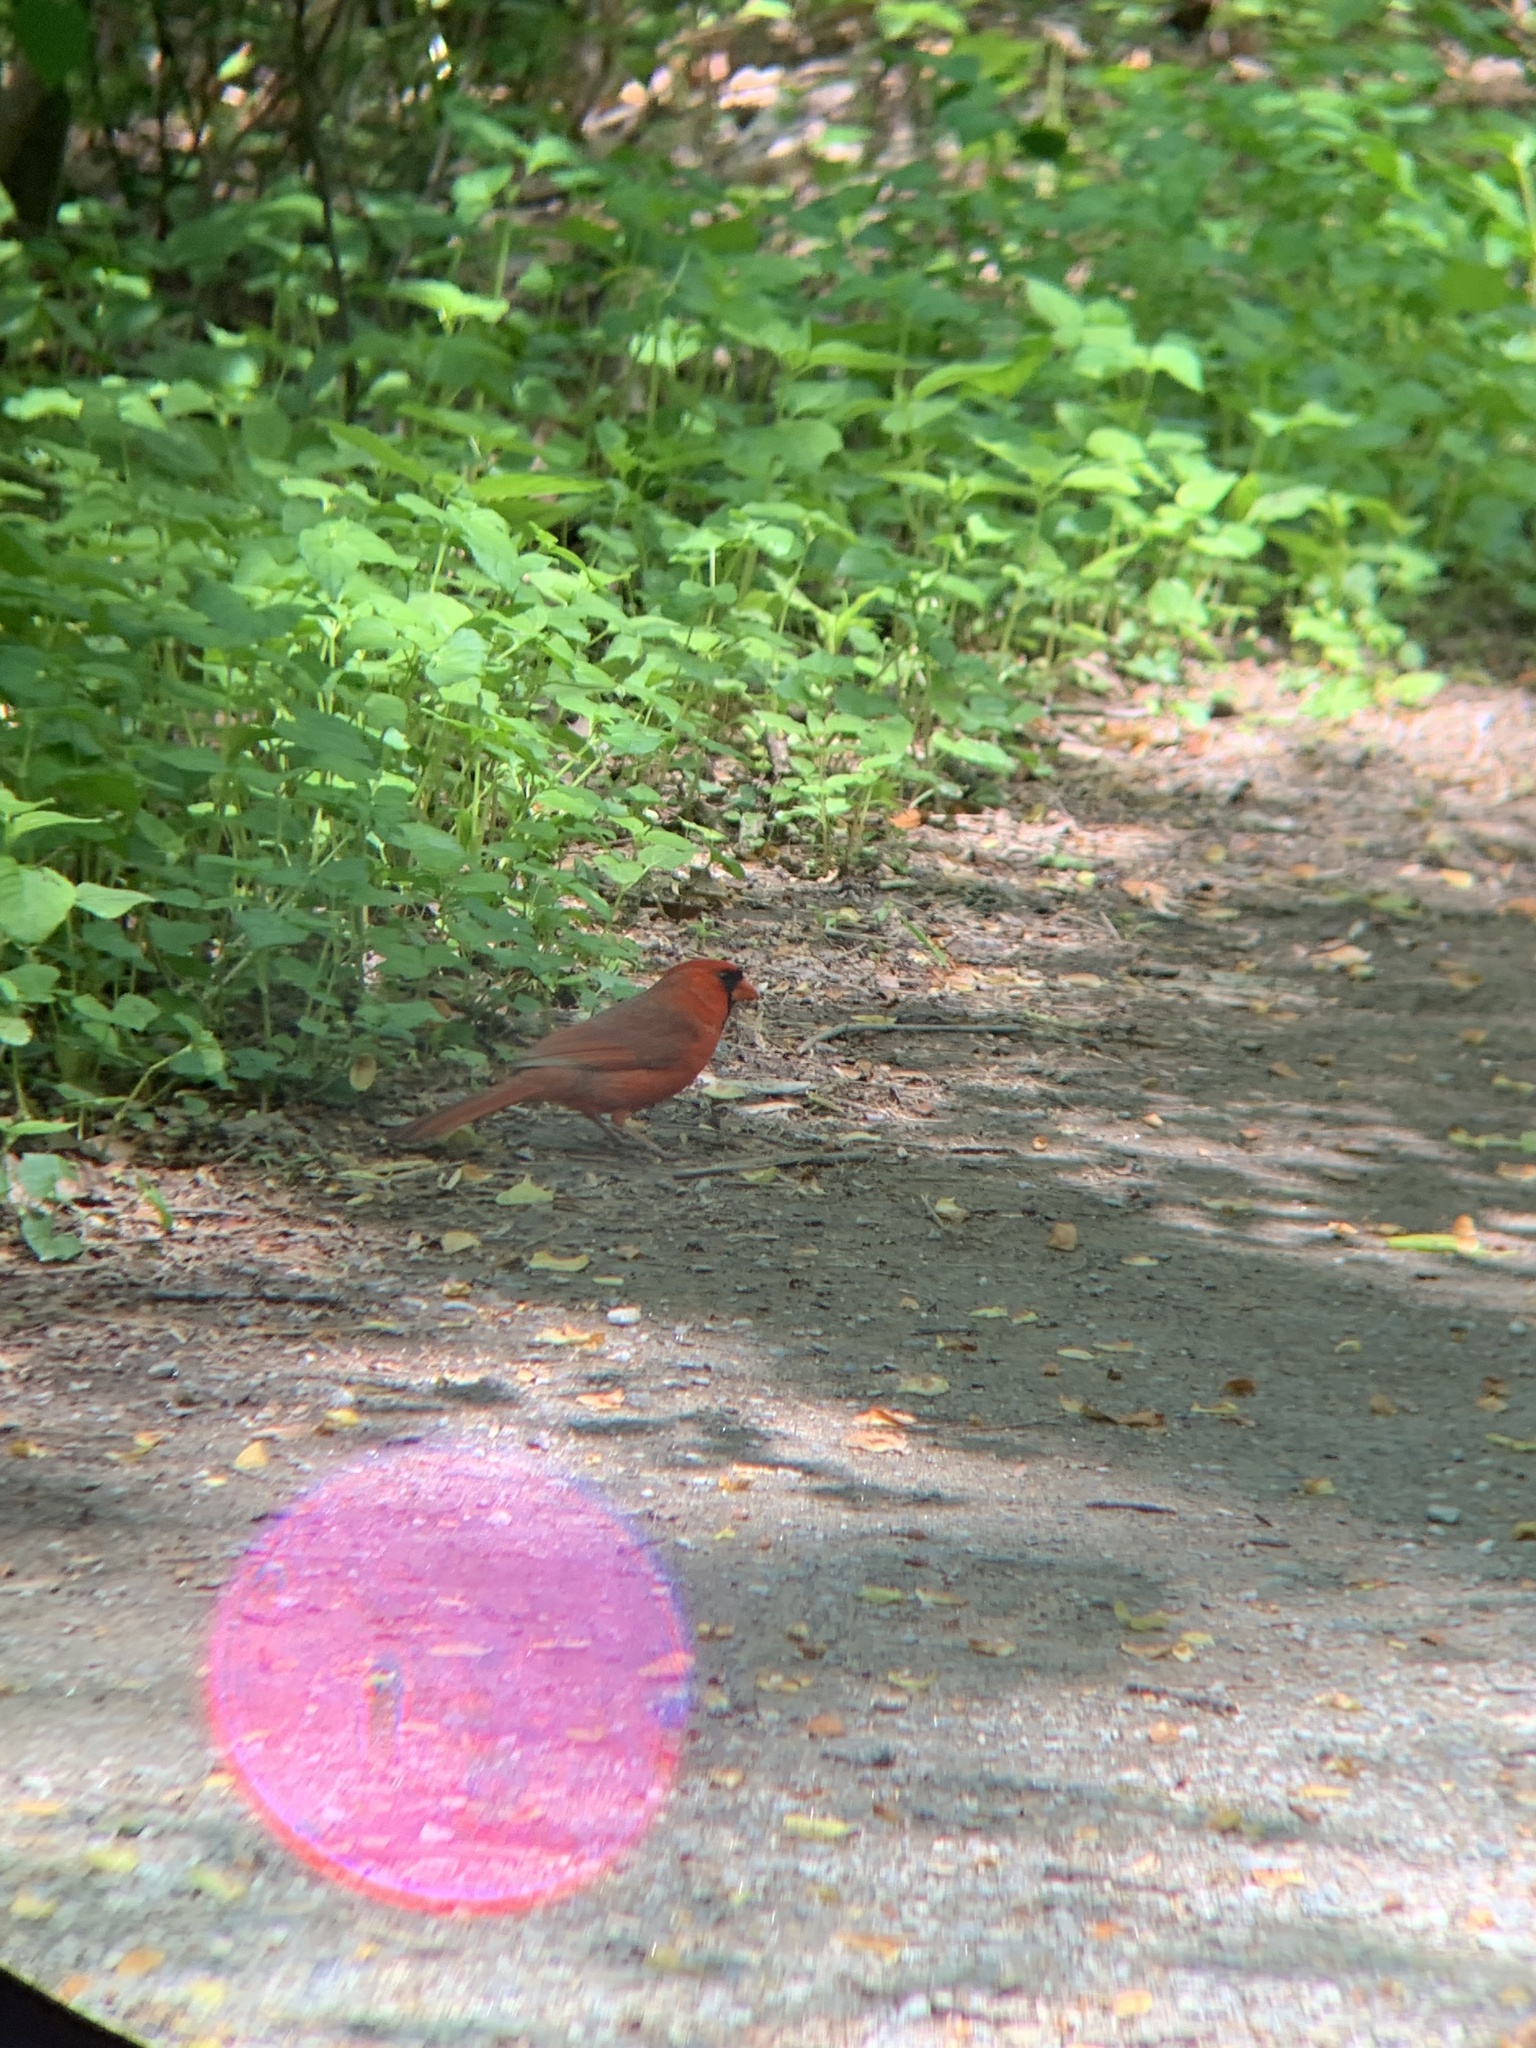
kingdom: Animalia
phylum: Chordata
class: Aves
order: Passeriformes
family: Cardinalidae
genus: Cardinalis
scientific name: Cardinalis cardinalis
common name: Northern cardinal
